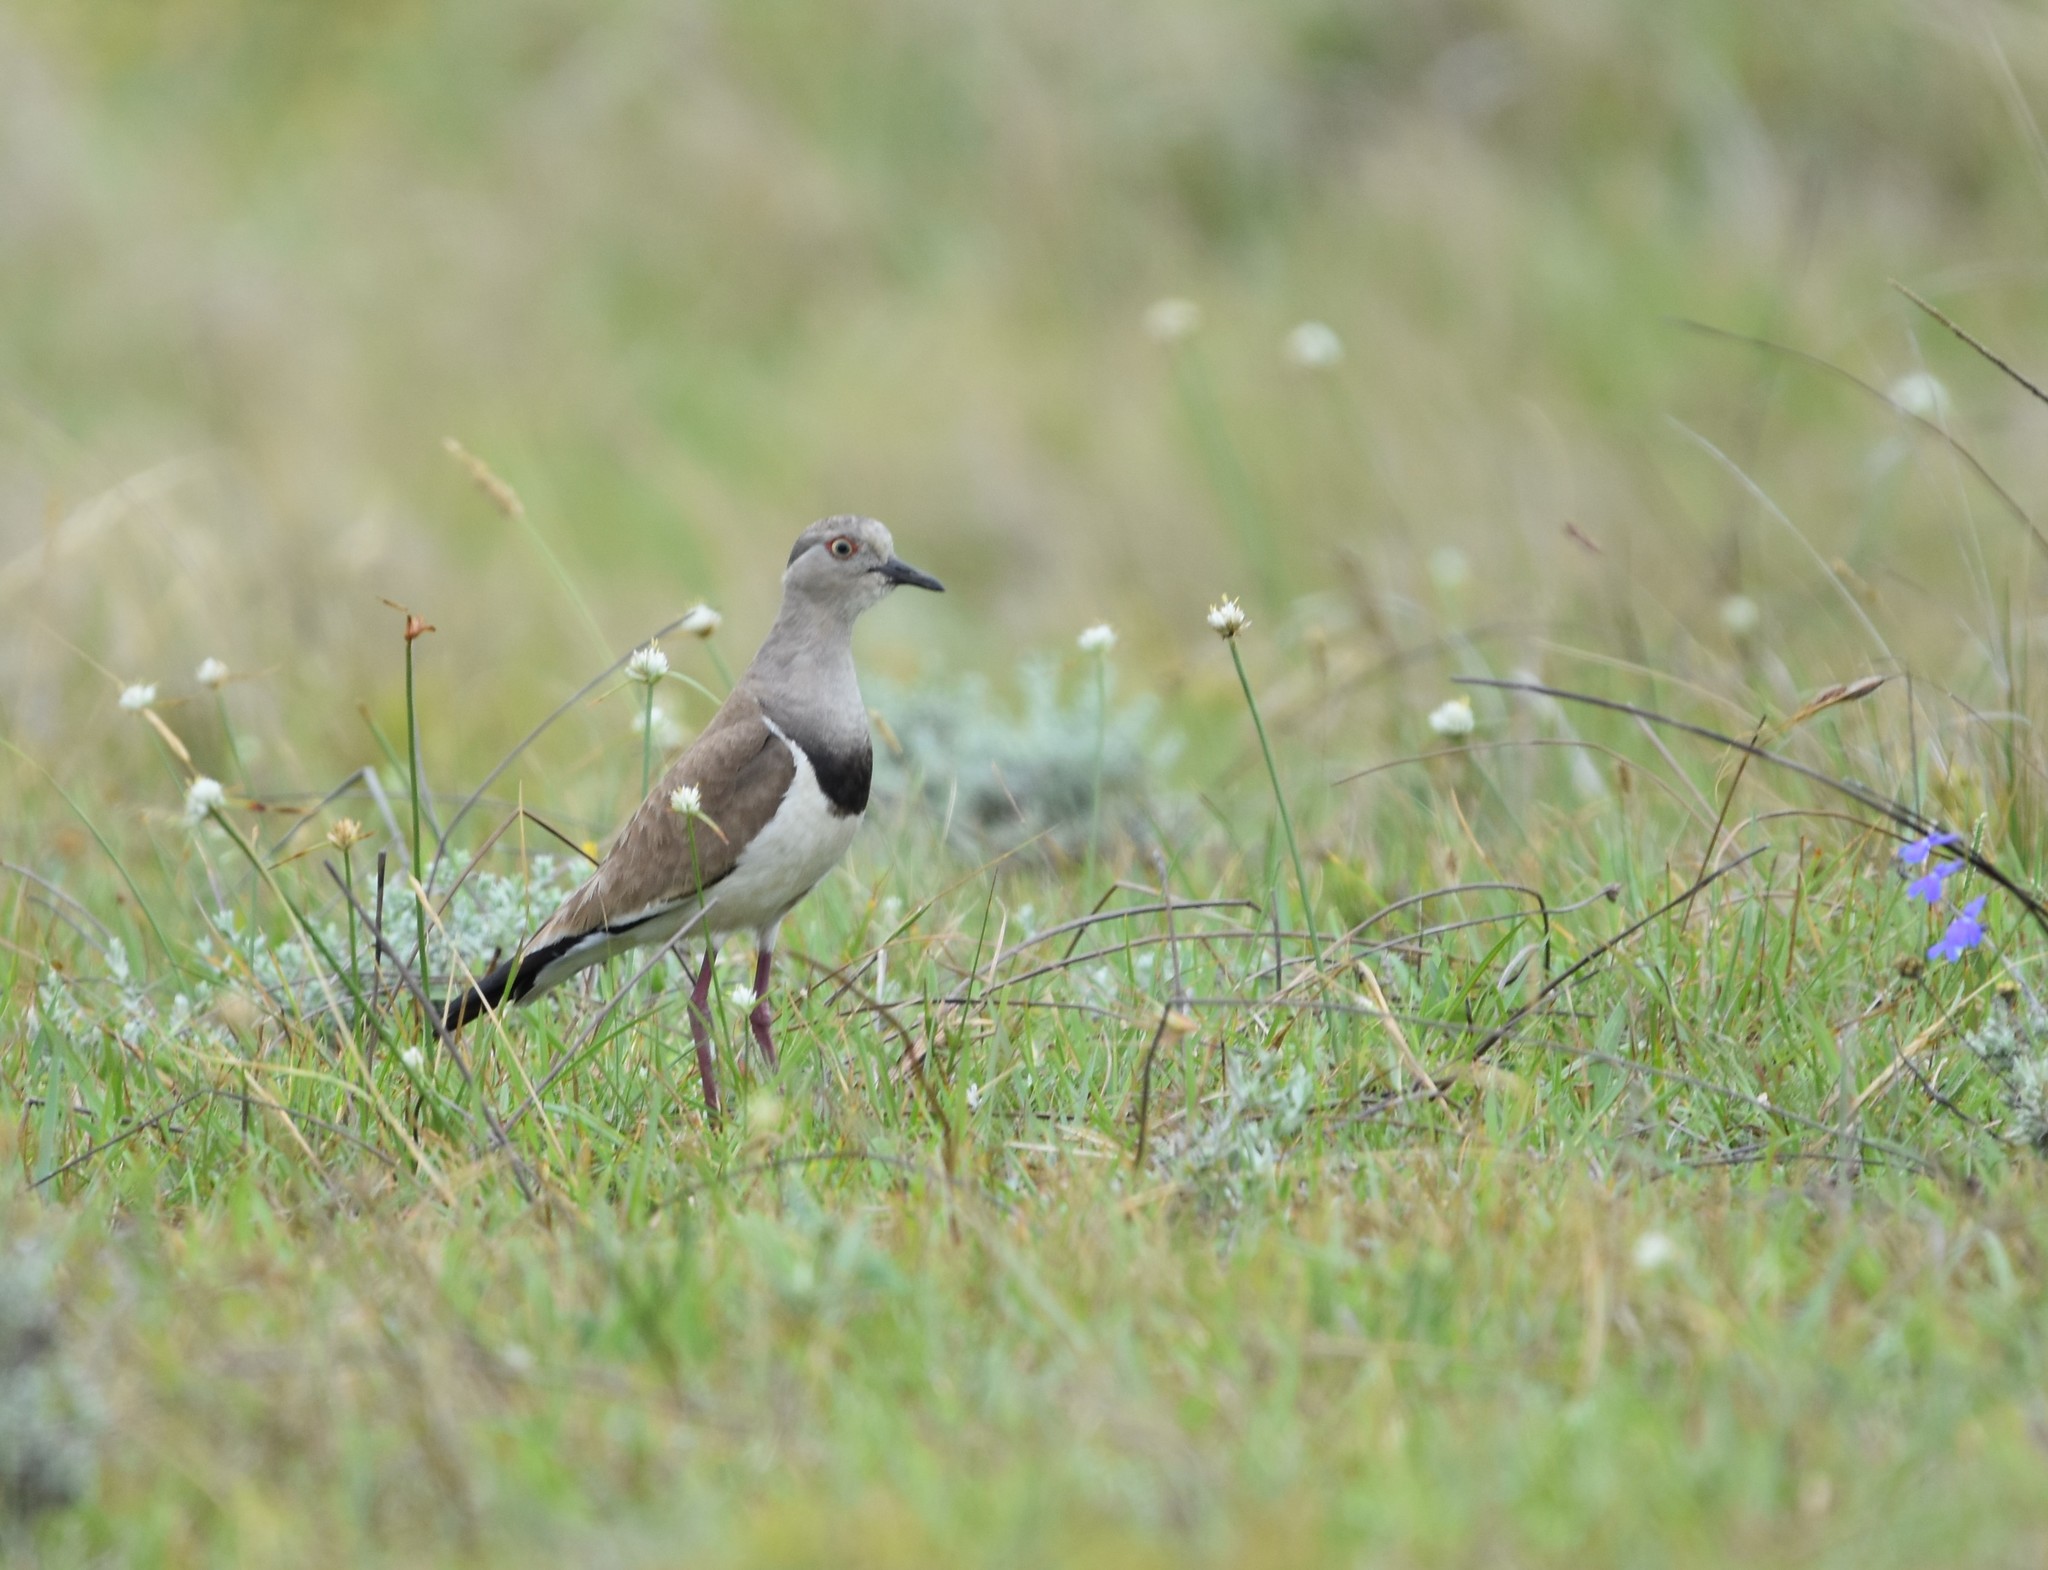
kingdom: Animalia
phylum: Chordata
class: Aves
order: Charadriiformes
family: Charadriidae
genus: Vanellus
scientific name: Vanellus melanopterus
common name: Black-winged lapwing
